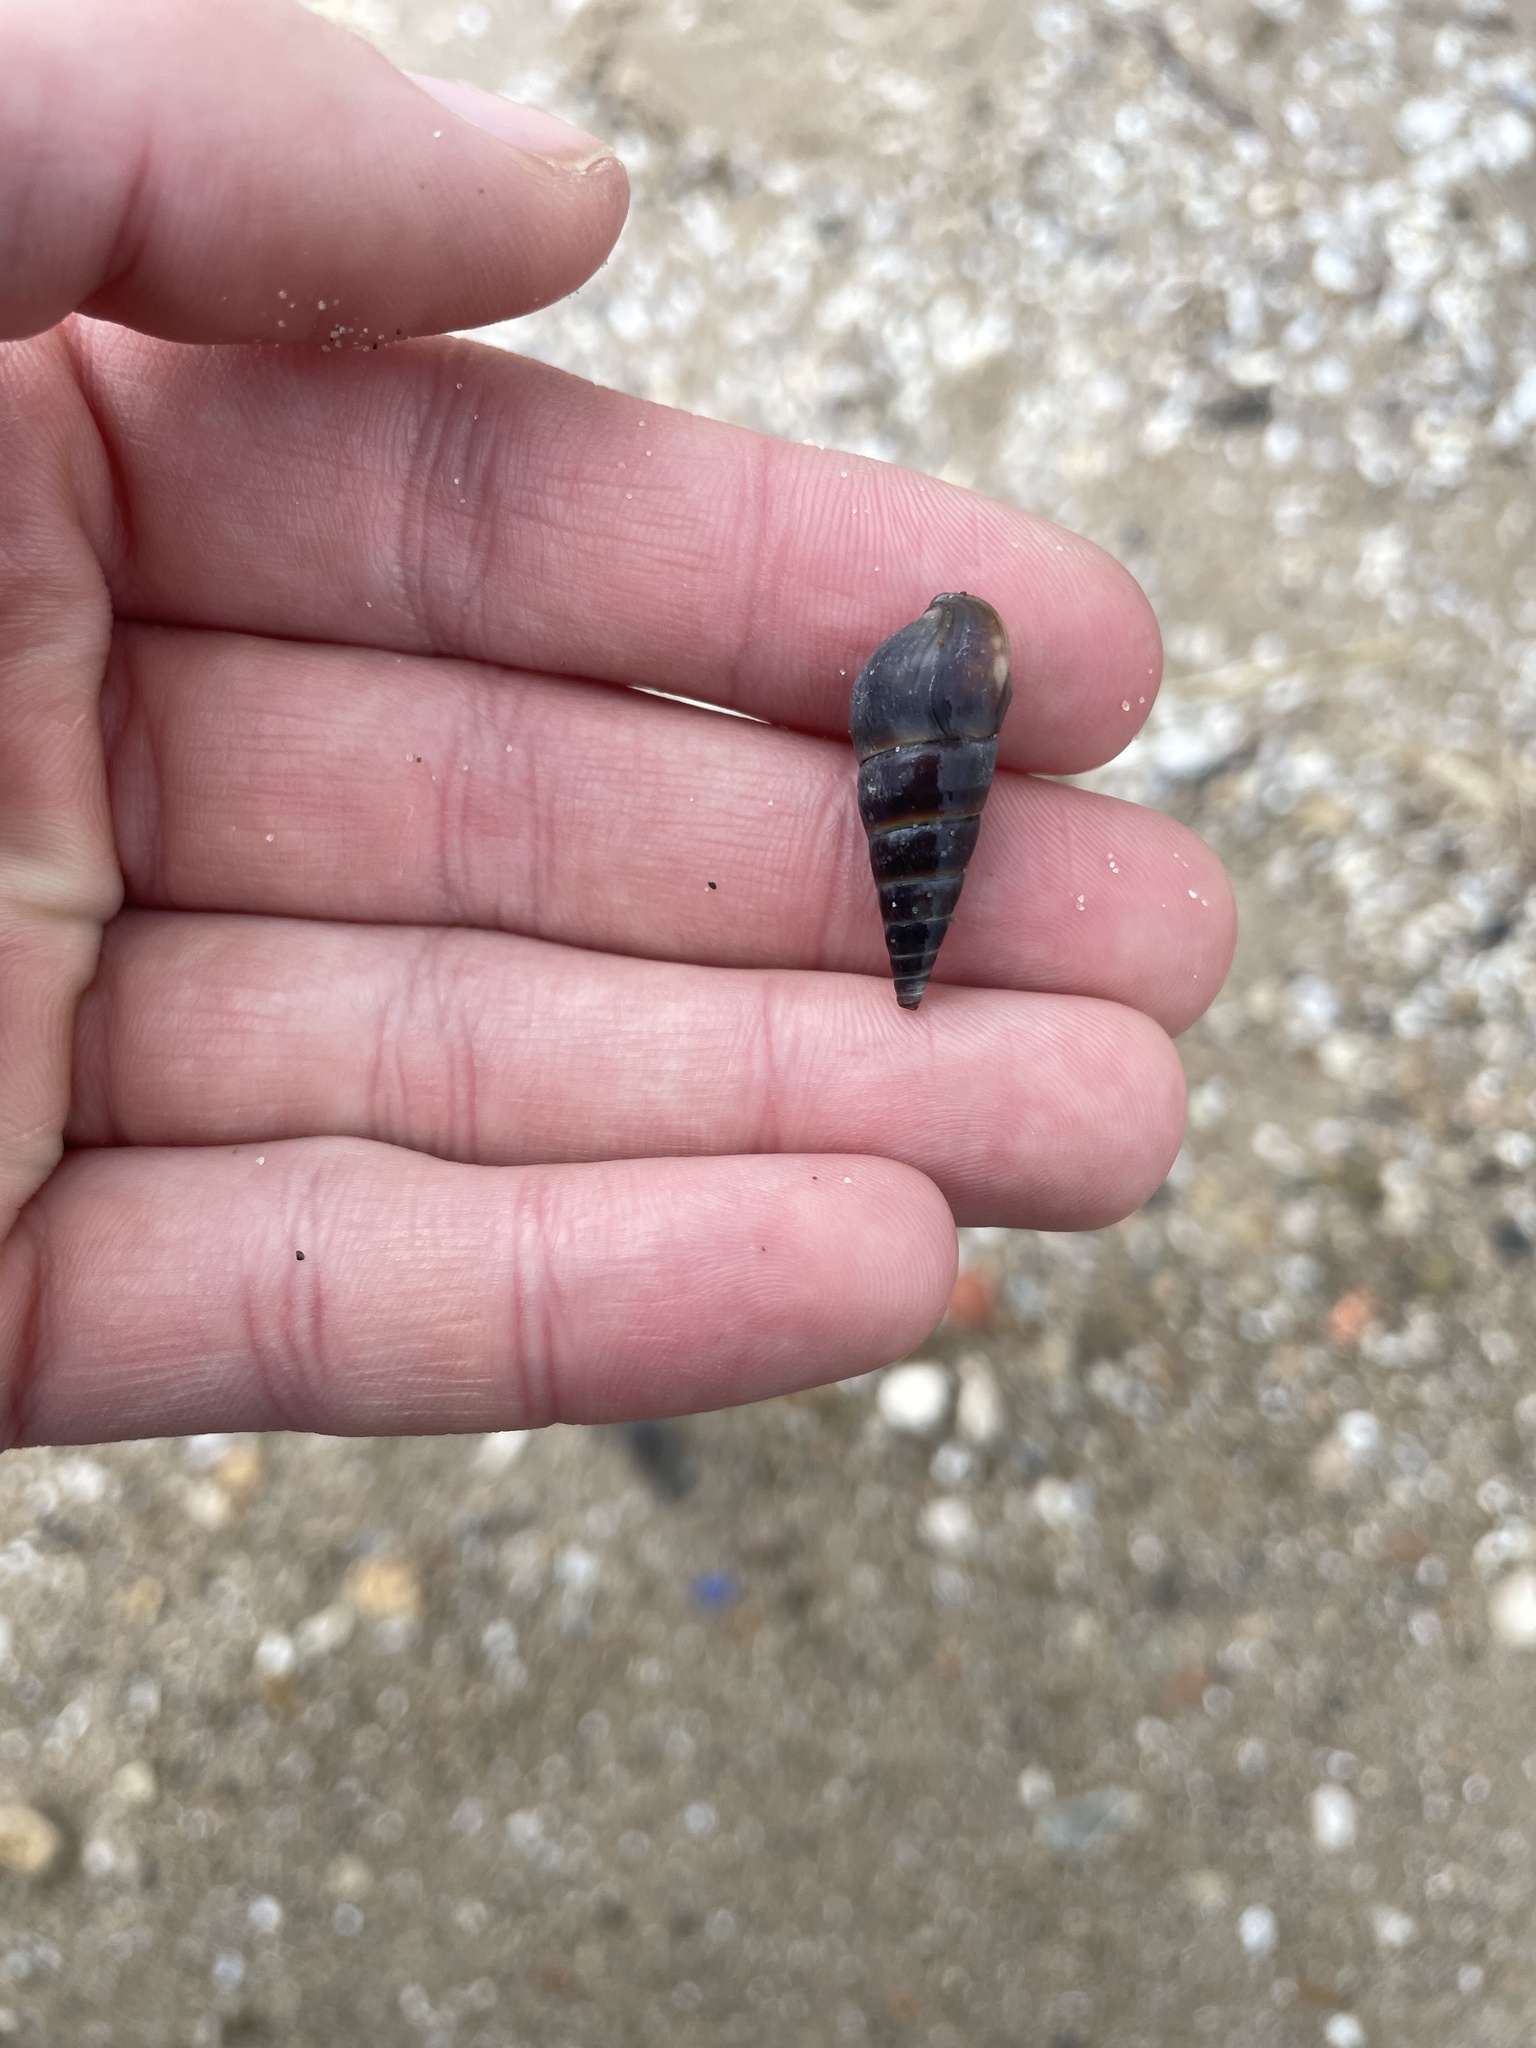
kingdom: Animalia
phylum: Mollusca
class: Gastropoda
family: Pleuroceridae
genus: Pleurocera
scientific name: Pleurocera acuta
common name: Sharp hornsnail
